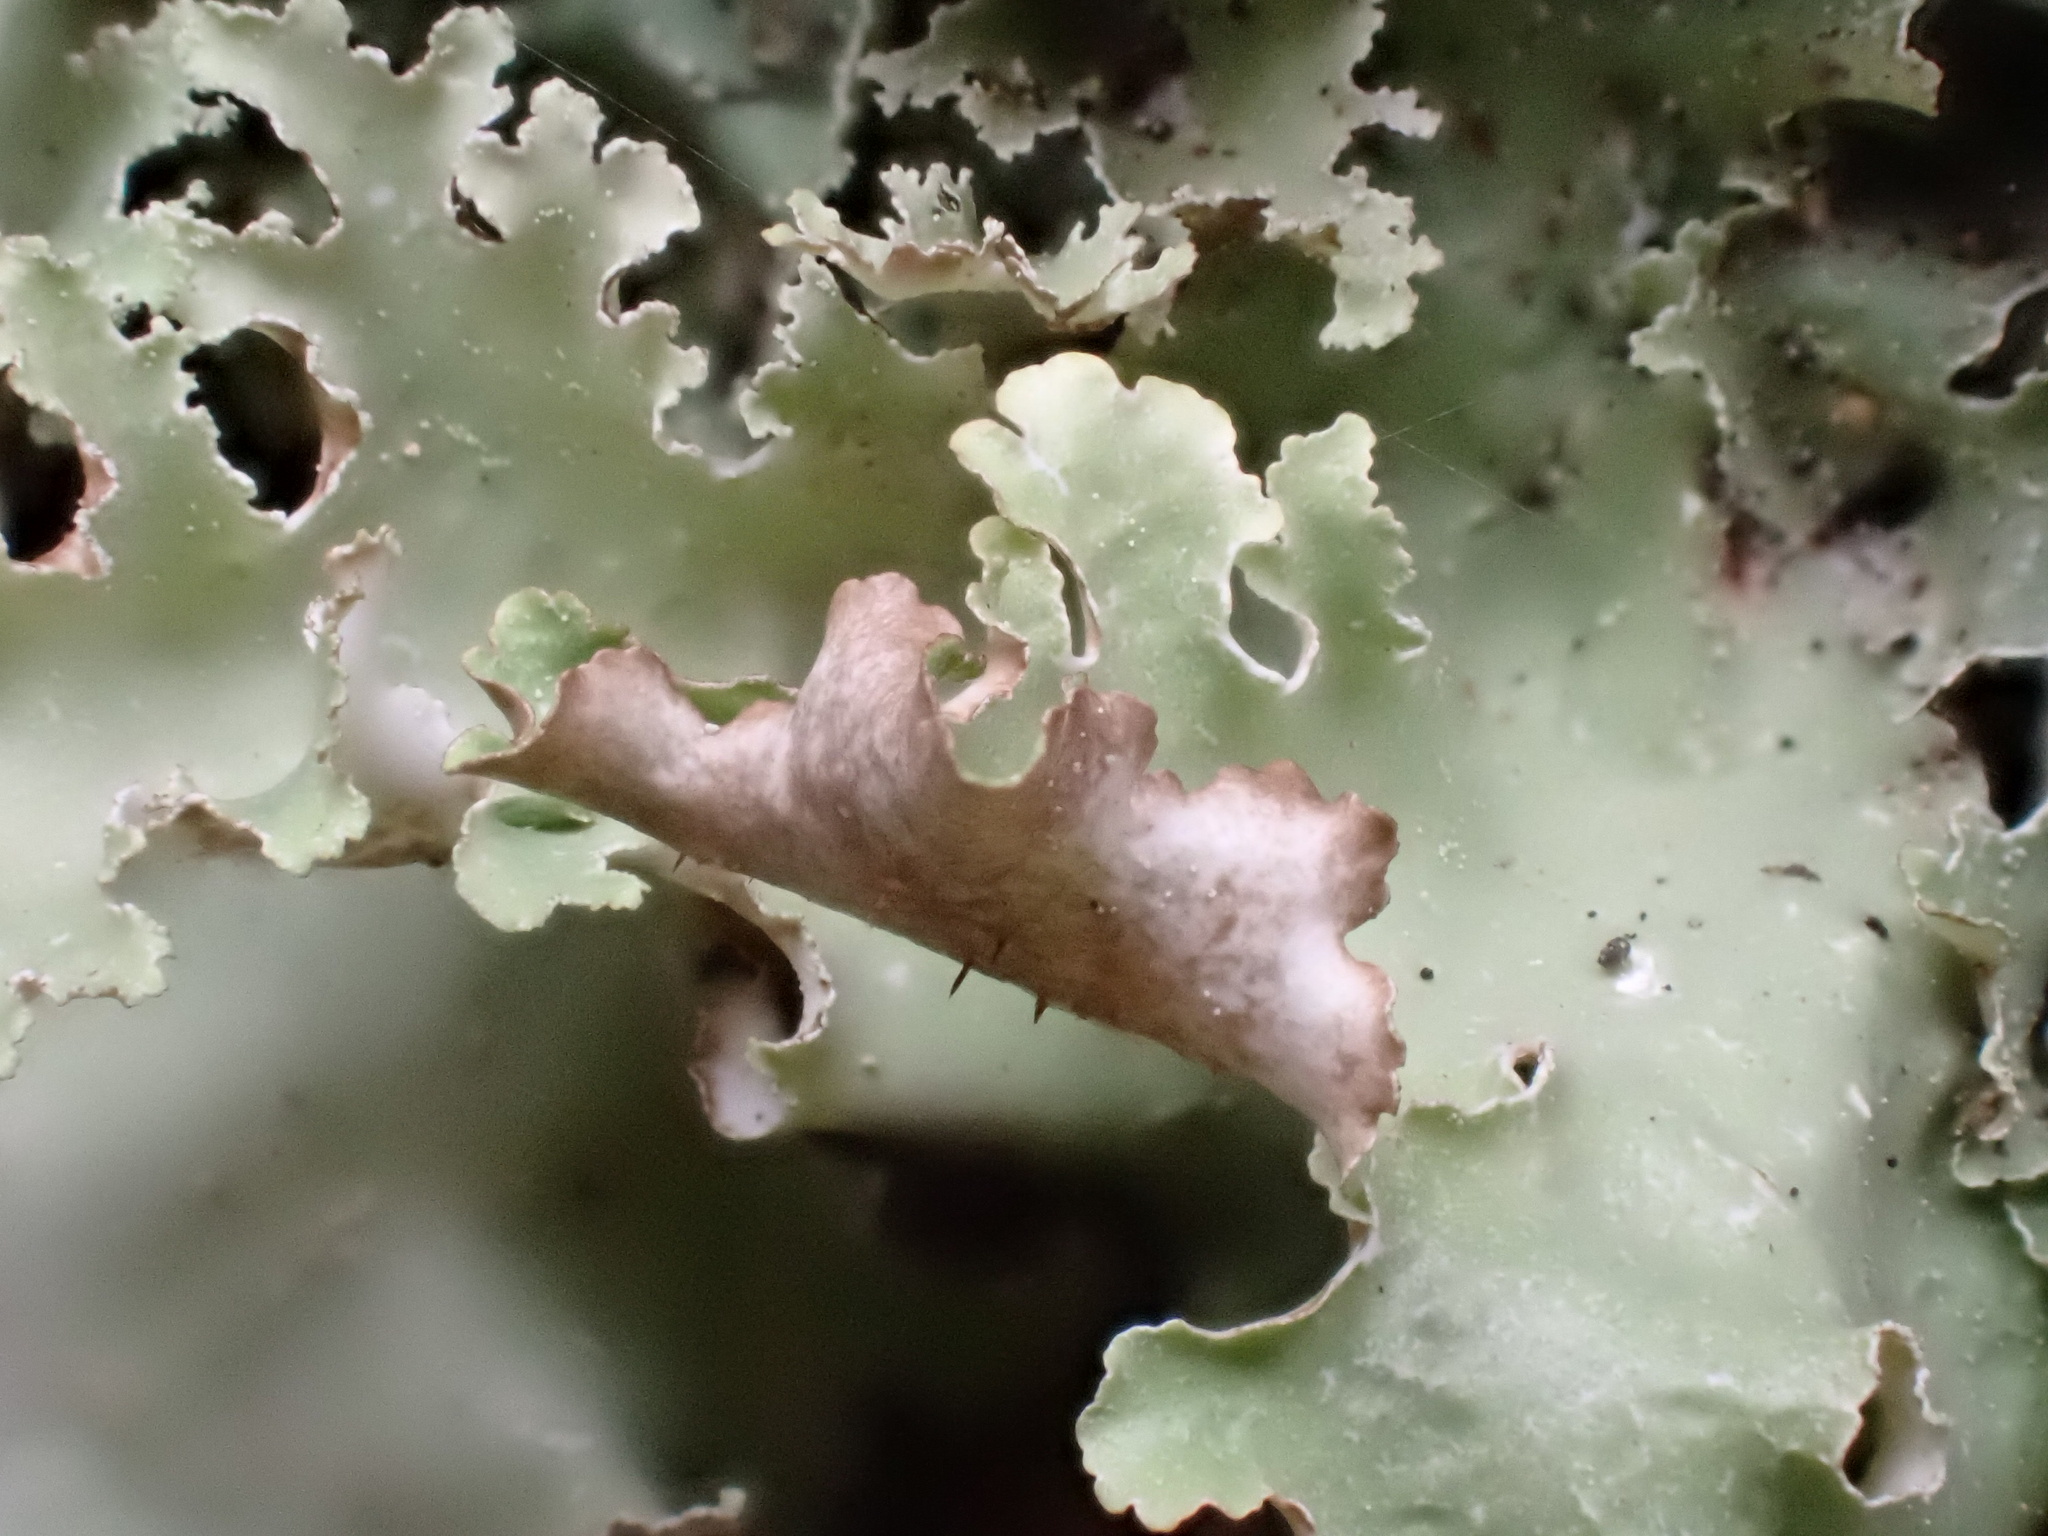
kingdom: Fungi
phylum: Ascomycota
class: Lecanoromycetes
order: Lecanorales
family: Parmeliaceae
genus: Platismatia
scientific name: Platismatia glauca
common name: Varied rag lichen
